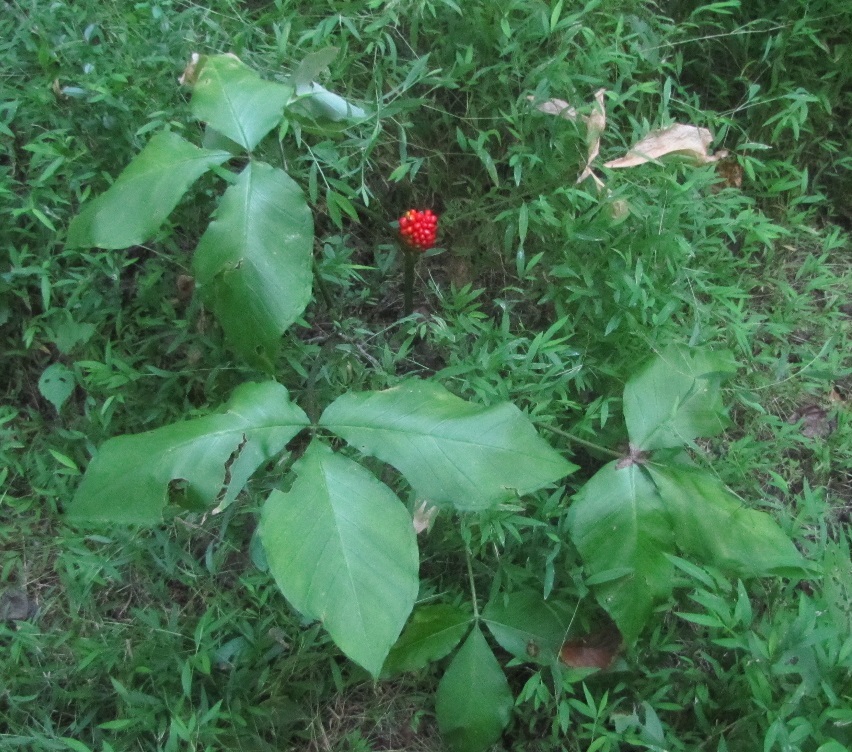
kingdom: Plantae
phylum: Tracheophyta
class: Liliopsida
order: Alismatales
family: Araceae
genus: Arisaema
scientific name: Arisaema triphyllum
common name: Jack-in-the-pulpit
